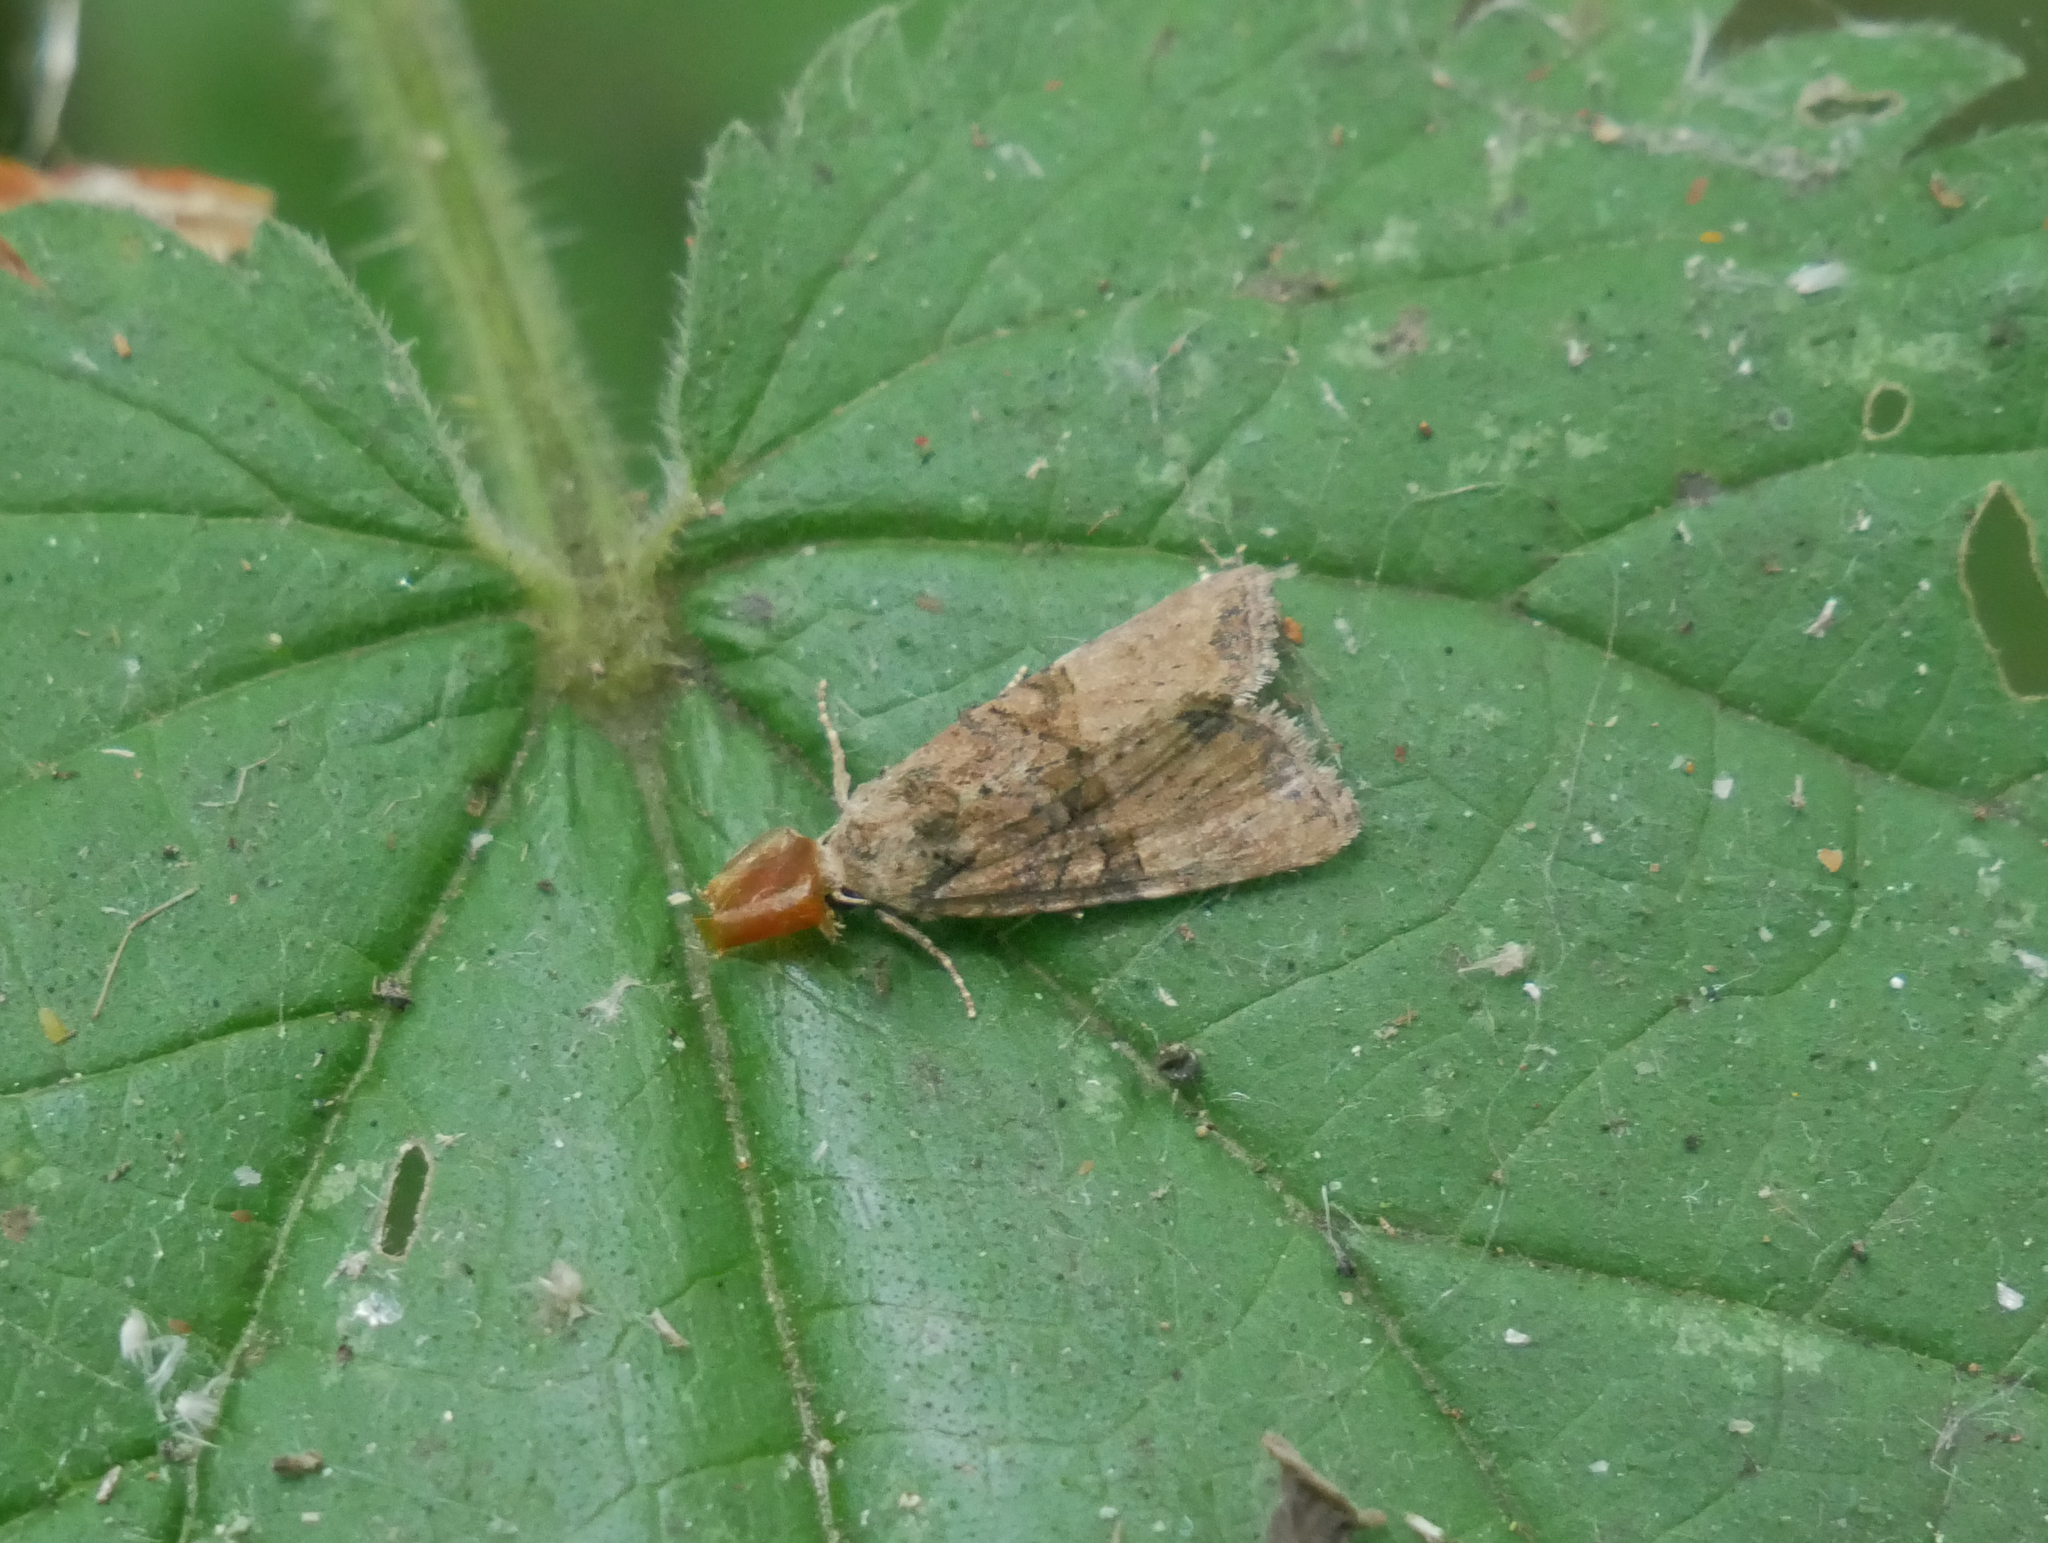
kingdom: Animalia
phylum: Arthropoda
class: Insecta
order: Lepidoptera
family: Noctuidae
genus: Mesoligia
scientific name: Mesoligia furuncula
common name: Cloaked minor
